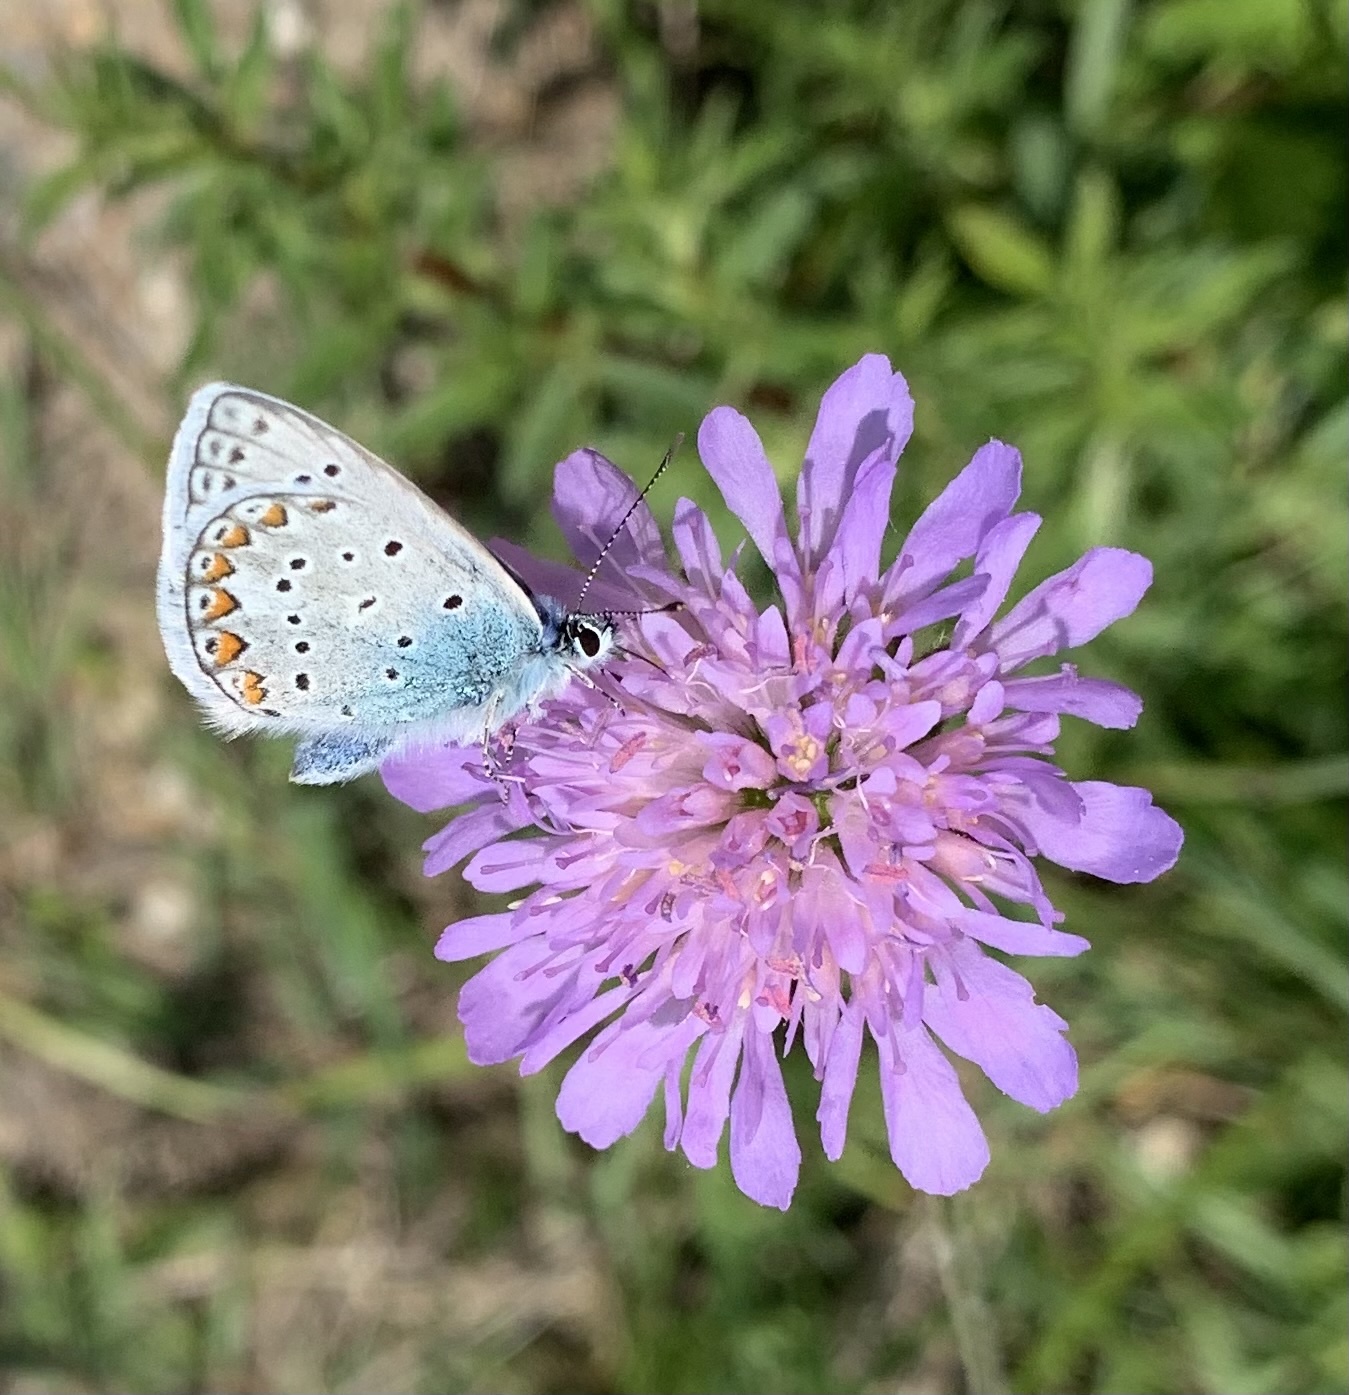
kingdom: Animalia
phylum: Arthropoda
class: Insecta
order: Lepidoptera
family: Lycaenidae
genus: Polyommatus
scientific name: Polyommatus icarus
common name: Common blue
